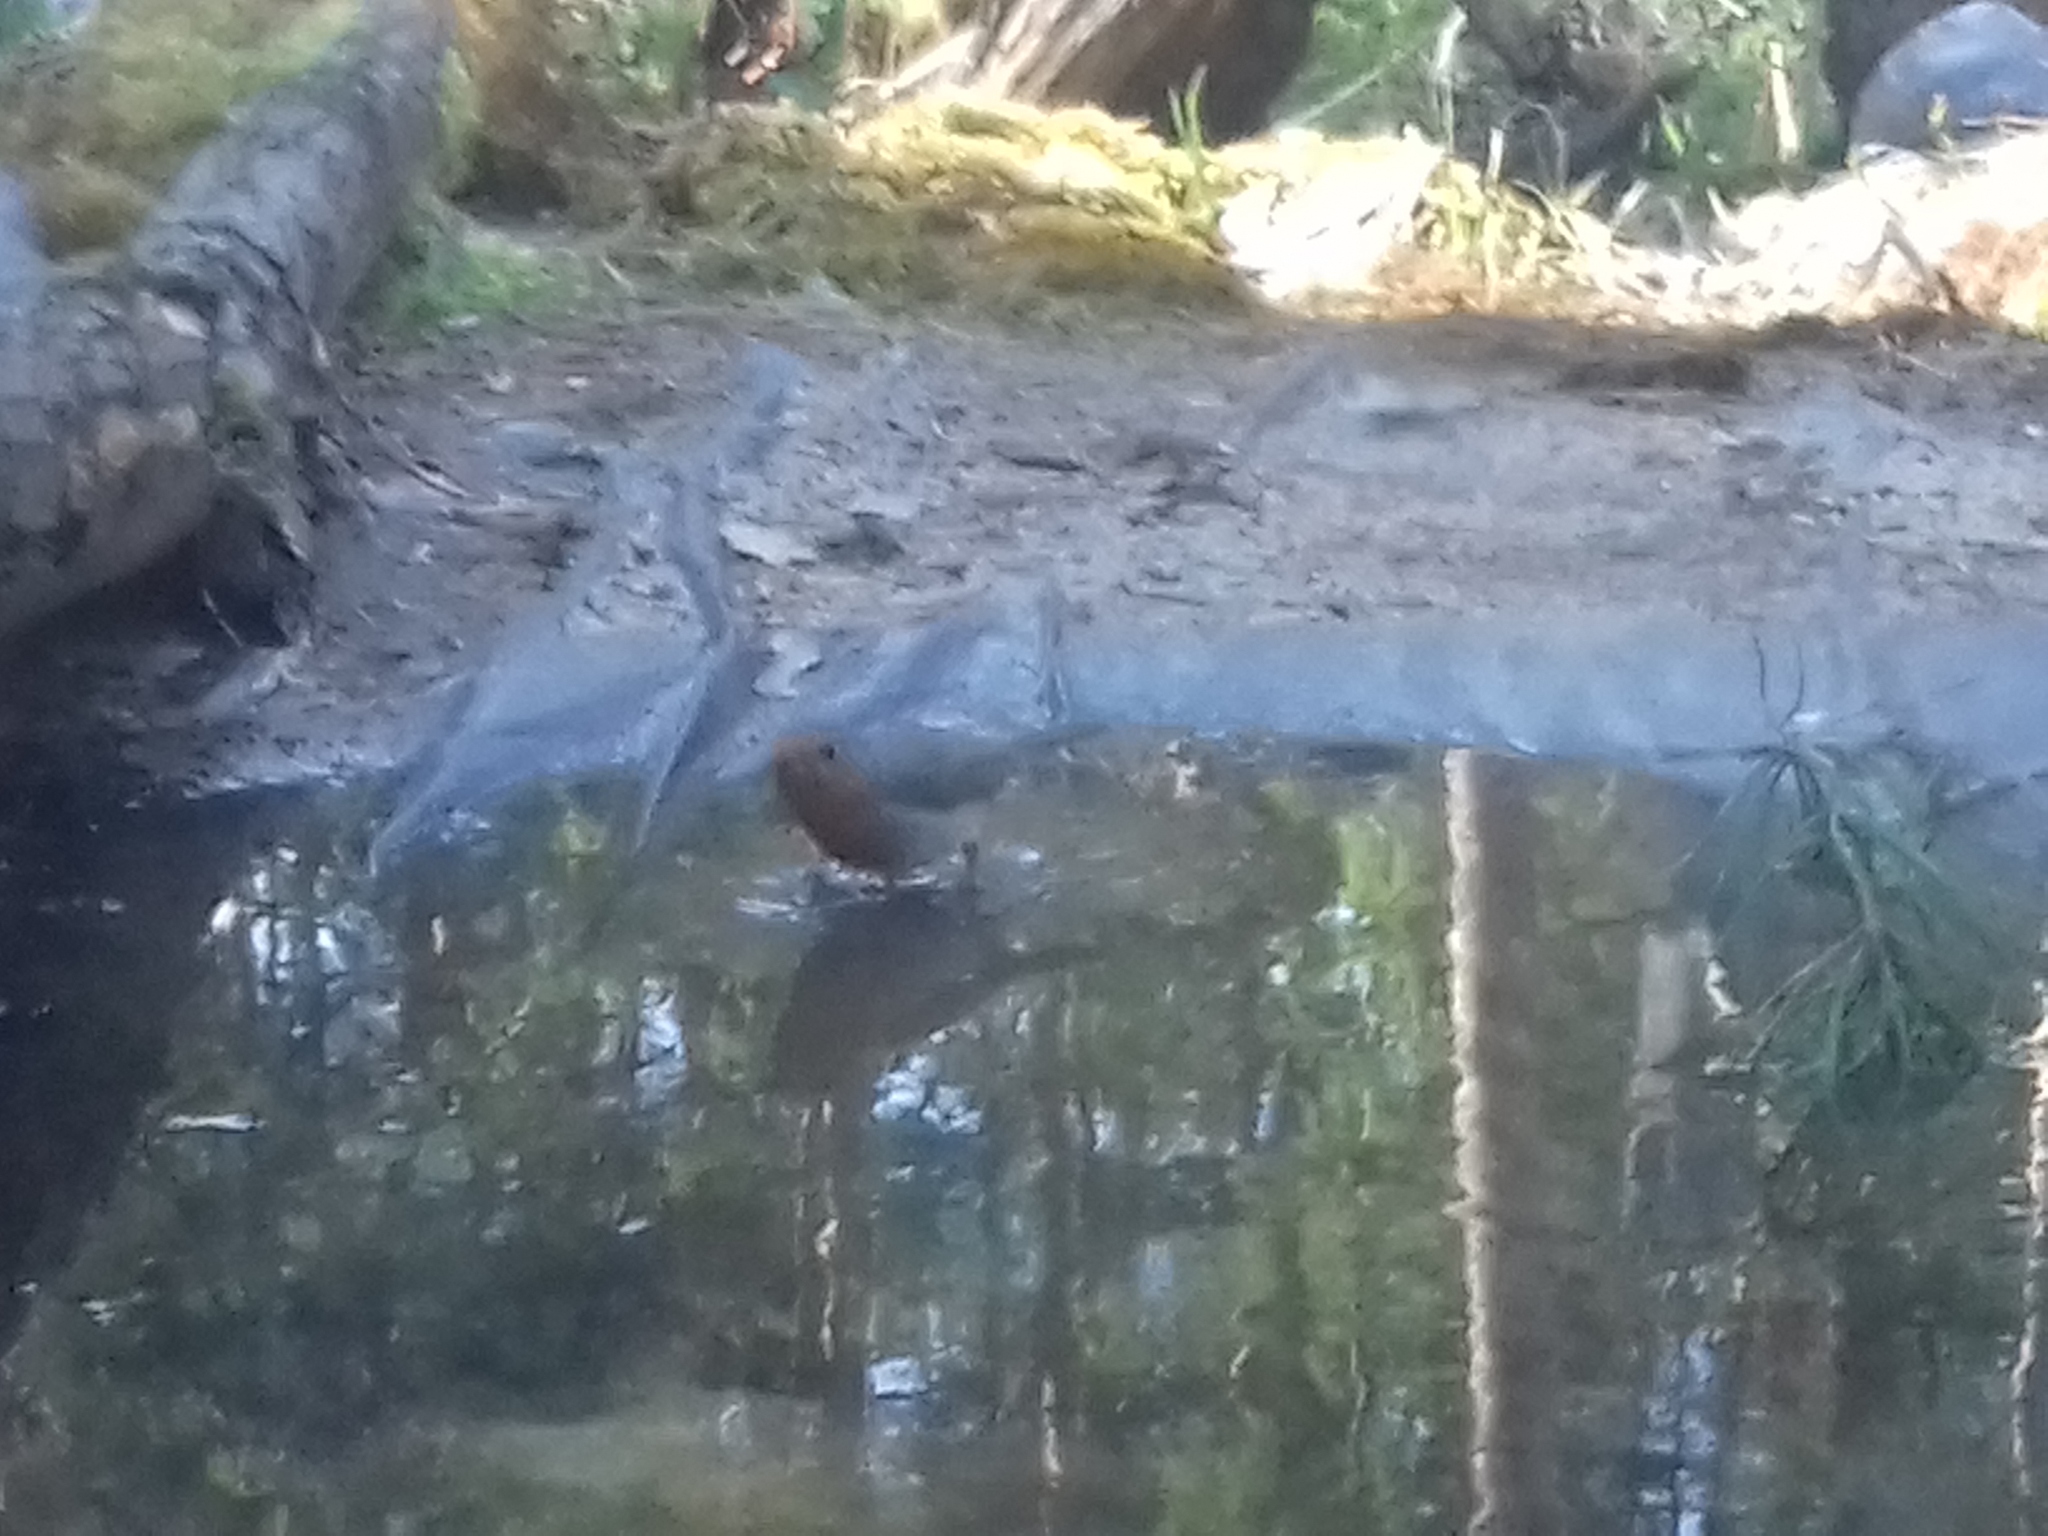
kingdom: Animalia
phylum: Chordata
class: Aves
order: Passeriformes
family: Muscicapidae
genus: Erithacus
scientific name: Erithacus rubecula
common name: European robin
